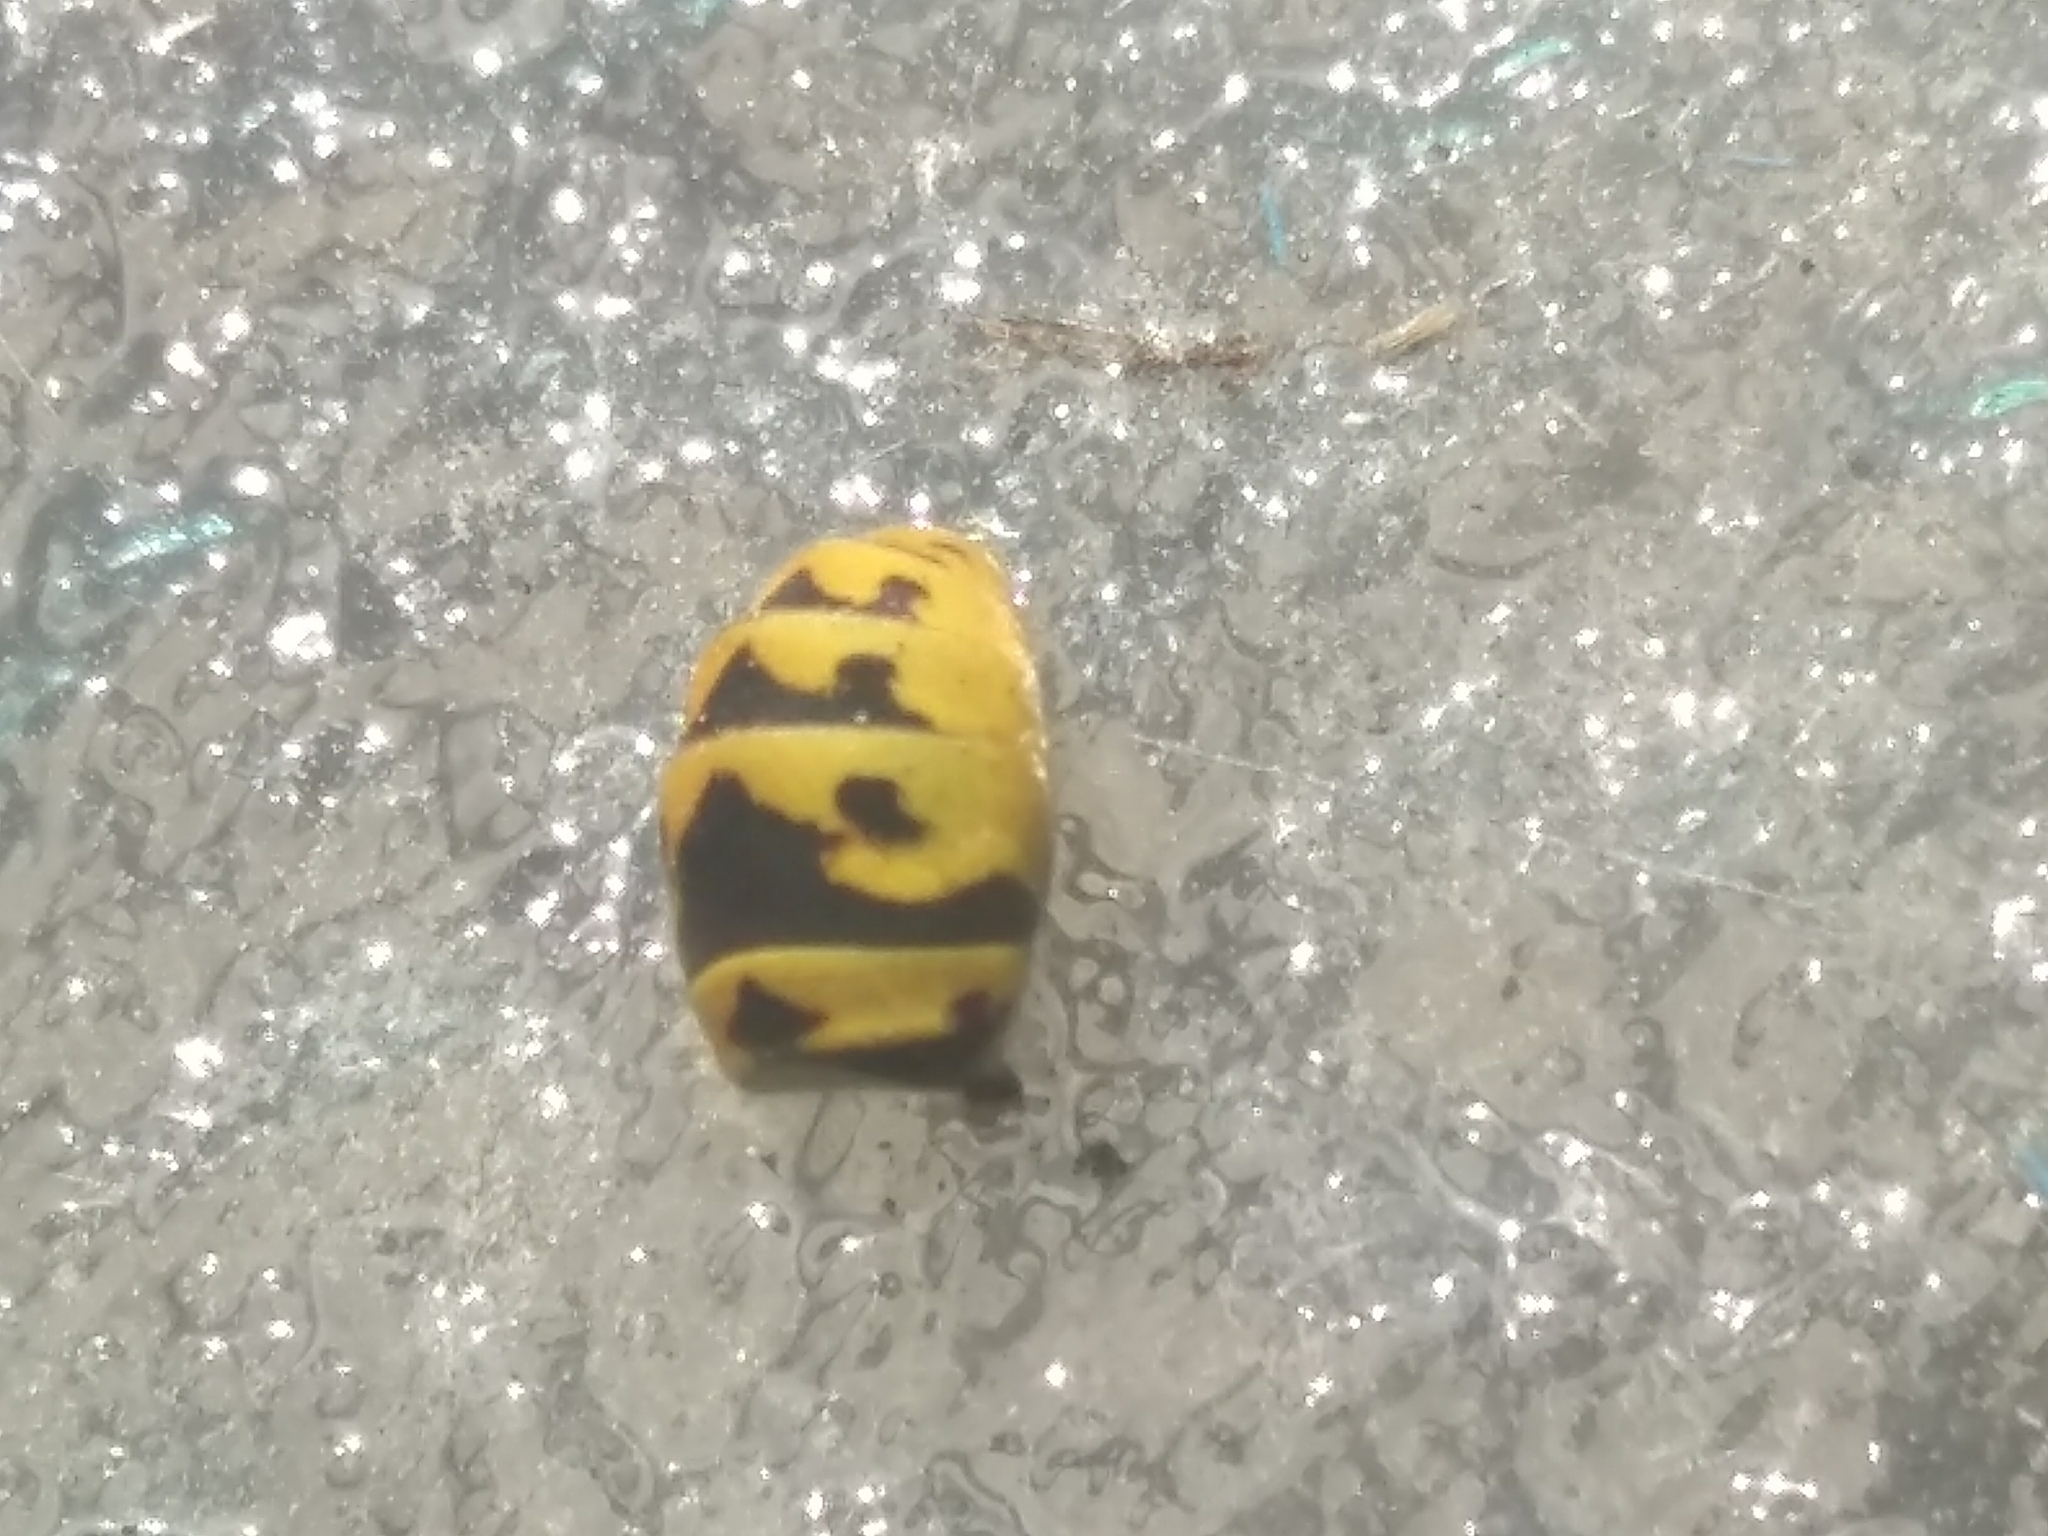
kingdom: Animalia
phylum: Arthropoda
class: Insecta
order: Hymenoptera
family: Vespidae
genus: Vespula
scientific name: Vespula germanica
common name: German wasp
